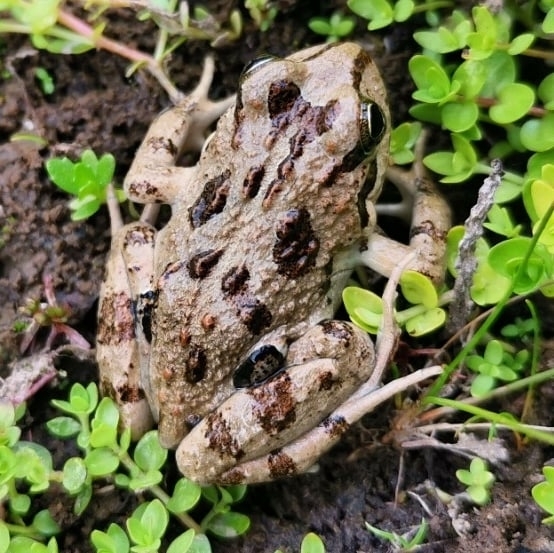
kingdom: Animalia
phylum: Chordata
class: Amphibia
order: Anura
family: Leptodactylidae
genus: Pleurodema
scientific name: Pleurodema thaul
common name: Chile four-eyed frog
